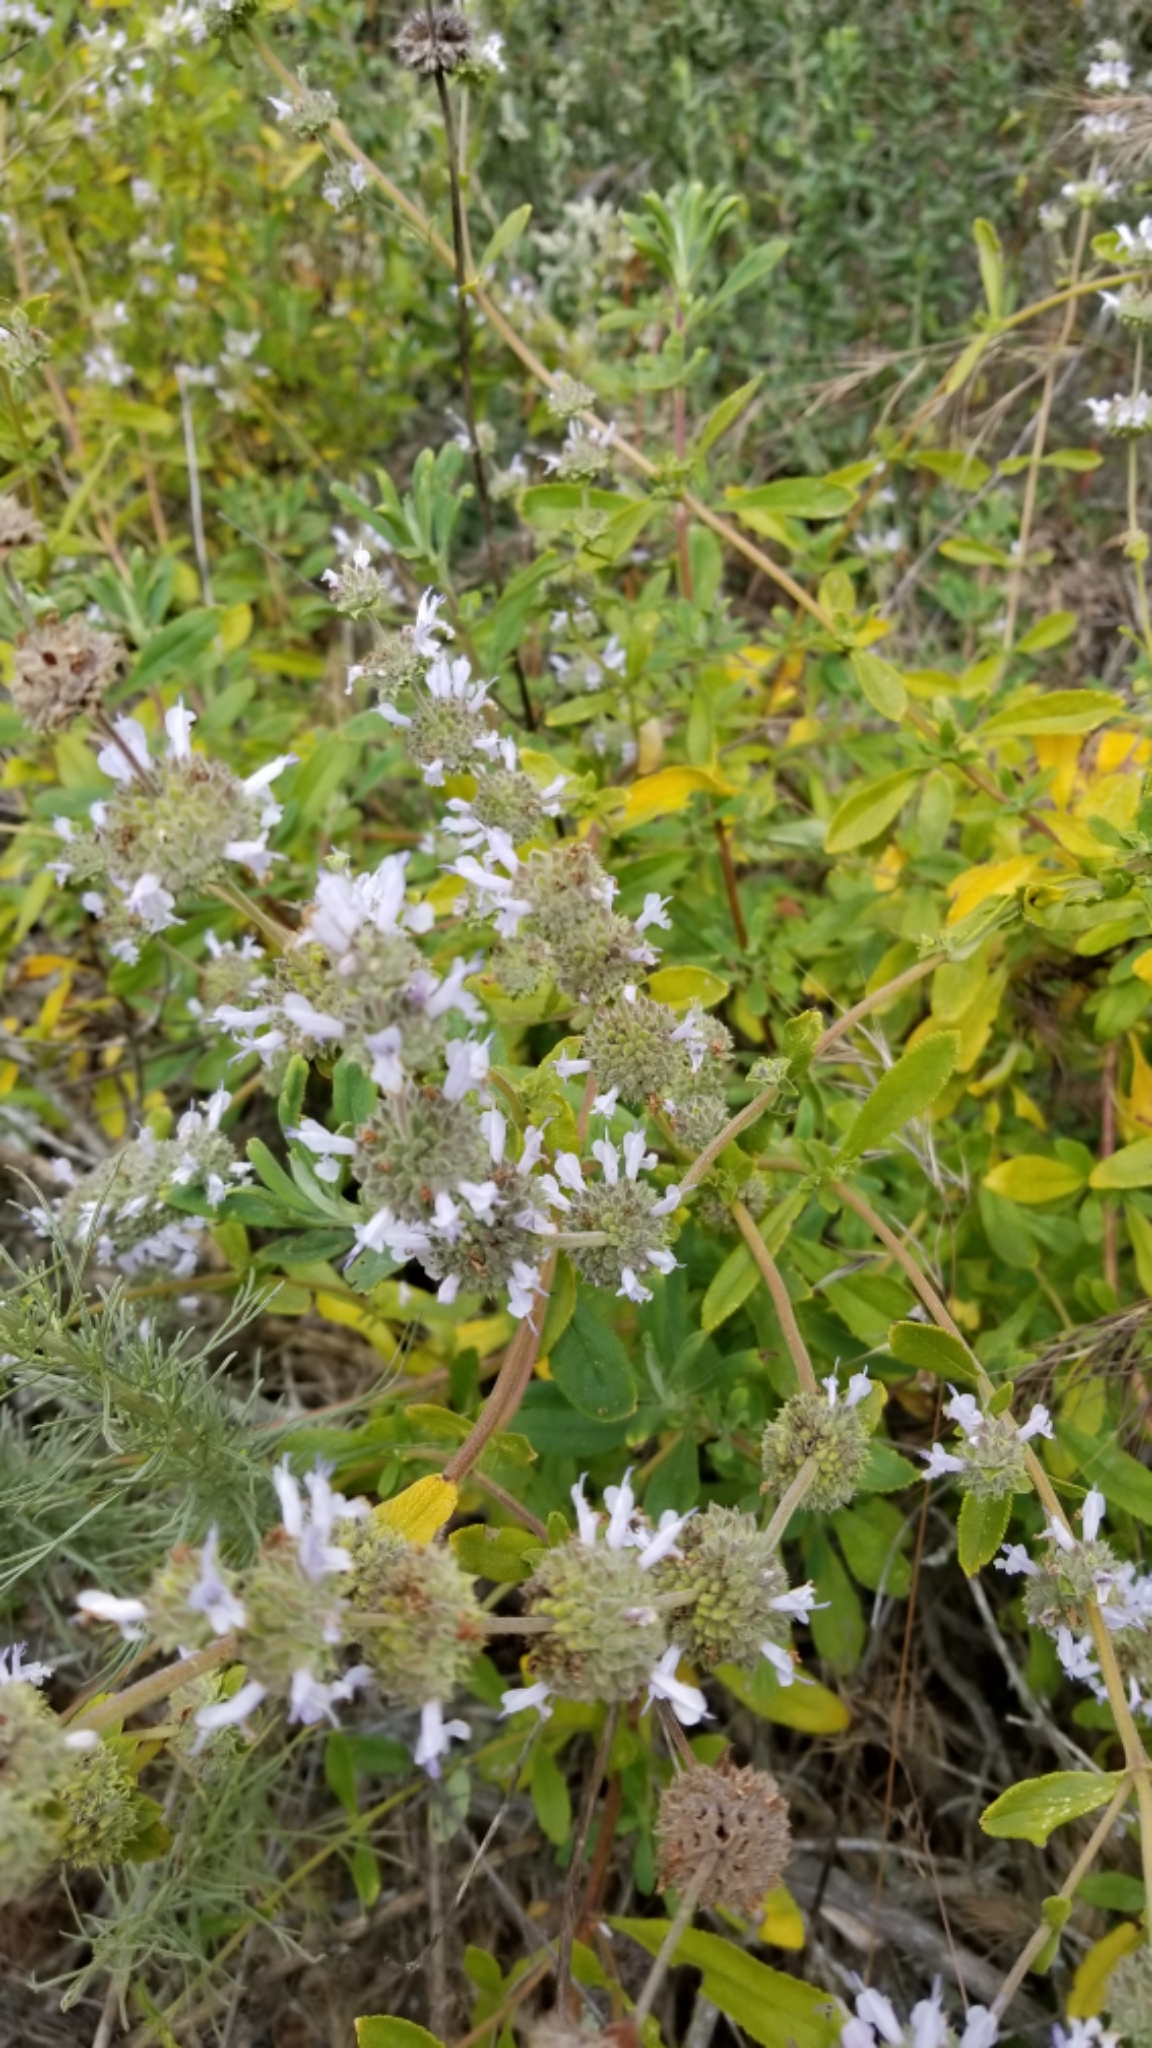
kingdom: Plantae
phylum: Tracheophyta
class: Magnoliopsida
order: Lamiales
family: Lamiaceae
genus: Salvia
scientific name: Salvia mellifera
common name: Black sage
